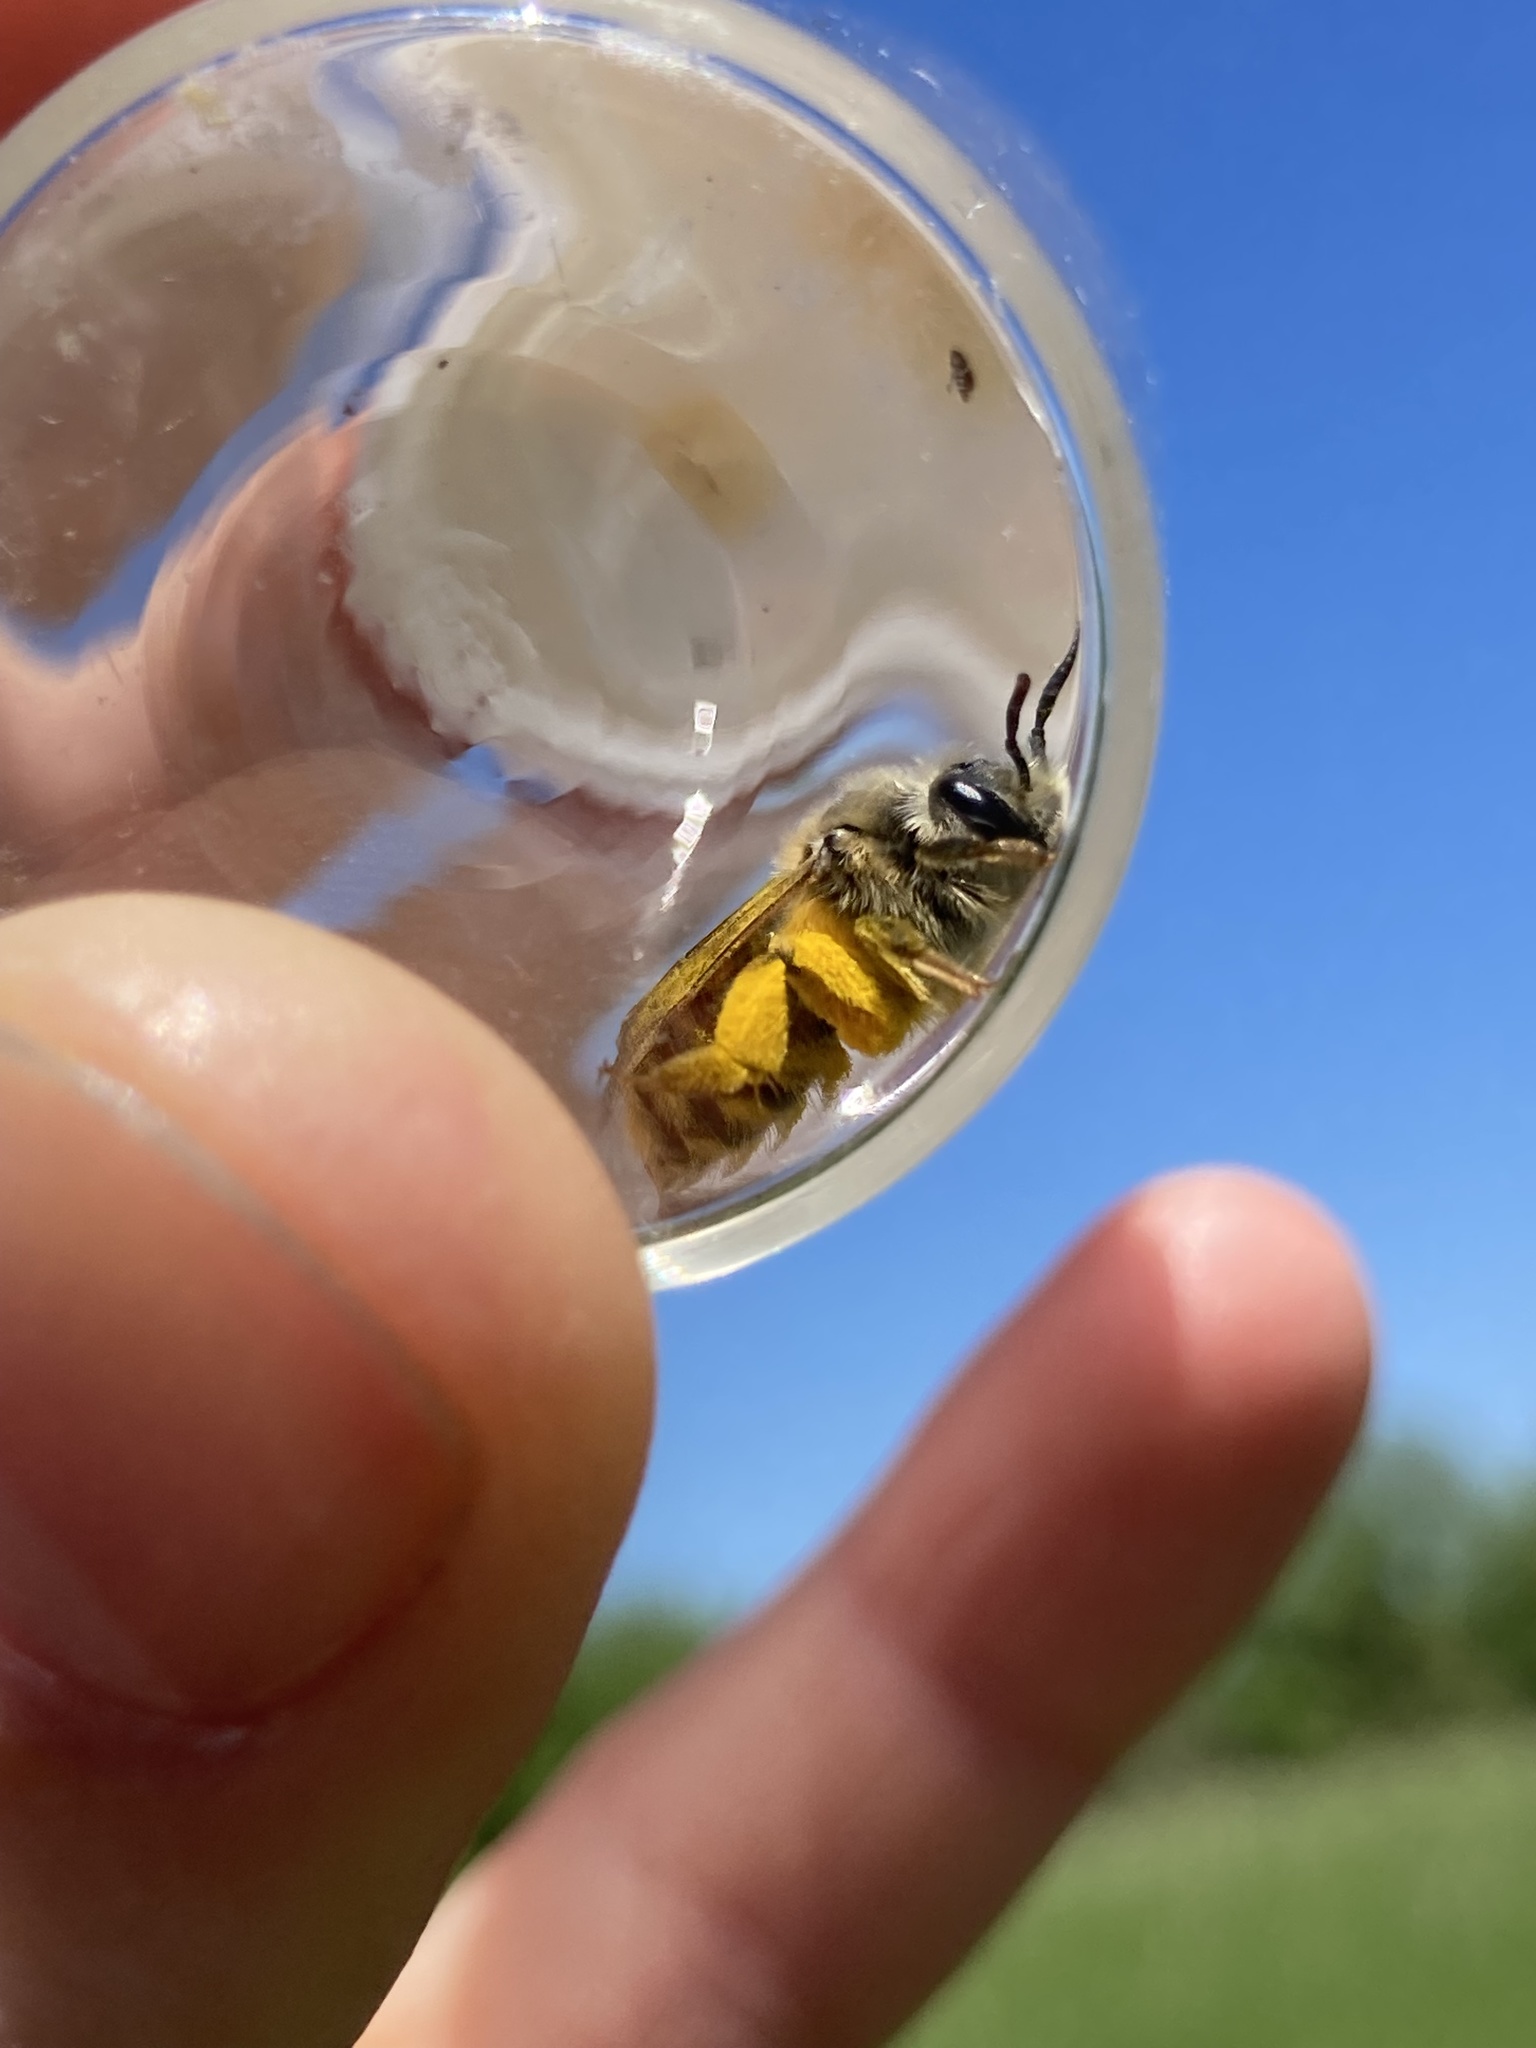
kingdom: Animalia
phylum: Arthropoda
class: Insecta
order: Hymenoptera
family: Andrenidae
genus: Andrena
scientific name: Andrena erythrogaster
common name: Red-tailed mining bee
